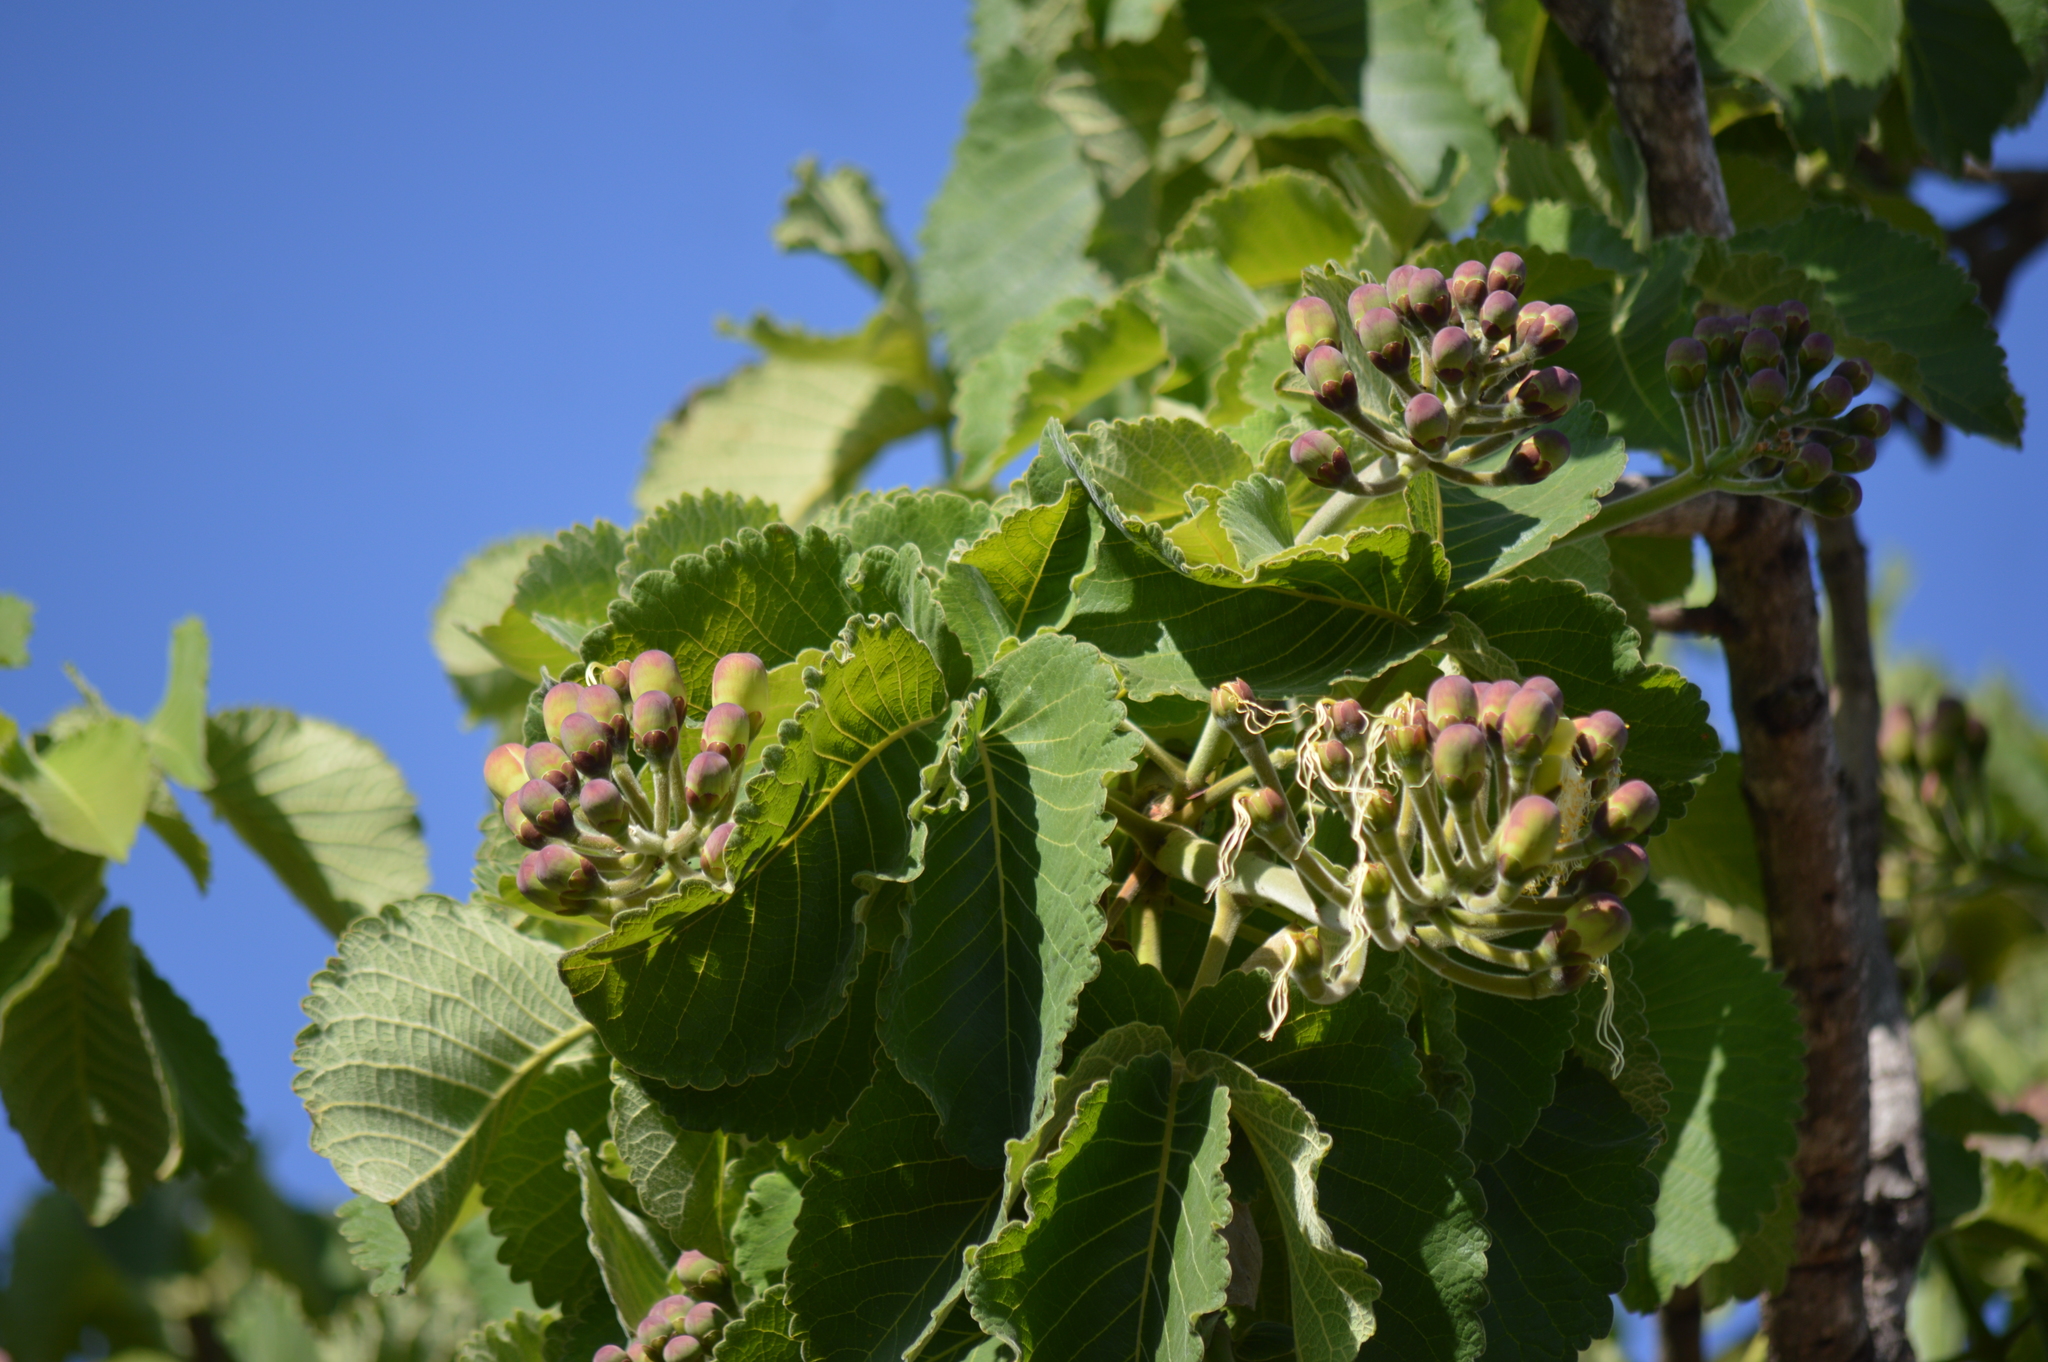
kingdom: Plantae
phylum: Tracheophyta
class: Magnoliopsida
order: Malpighiales
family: Caryocaraceae
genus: Caryocar
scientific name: Caryocar brasiliense
